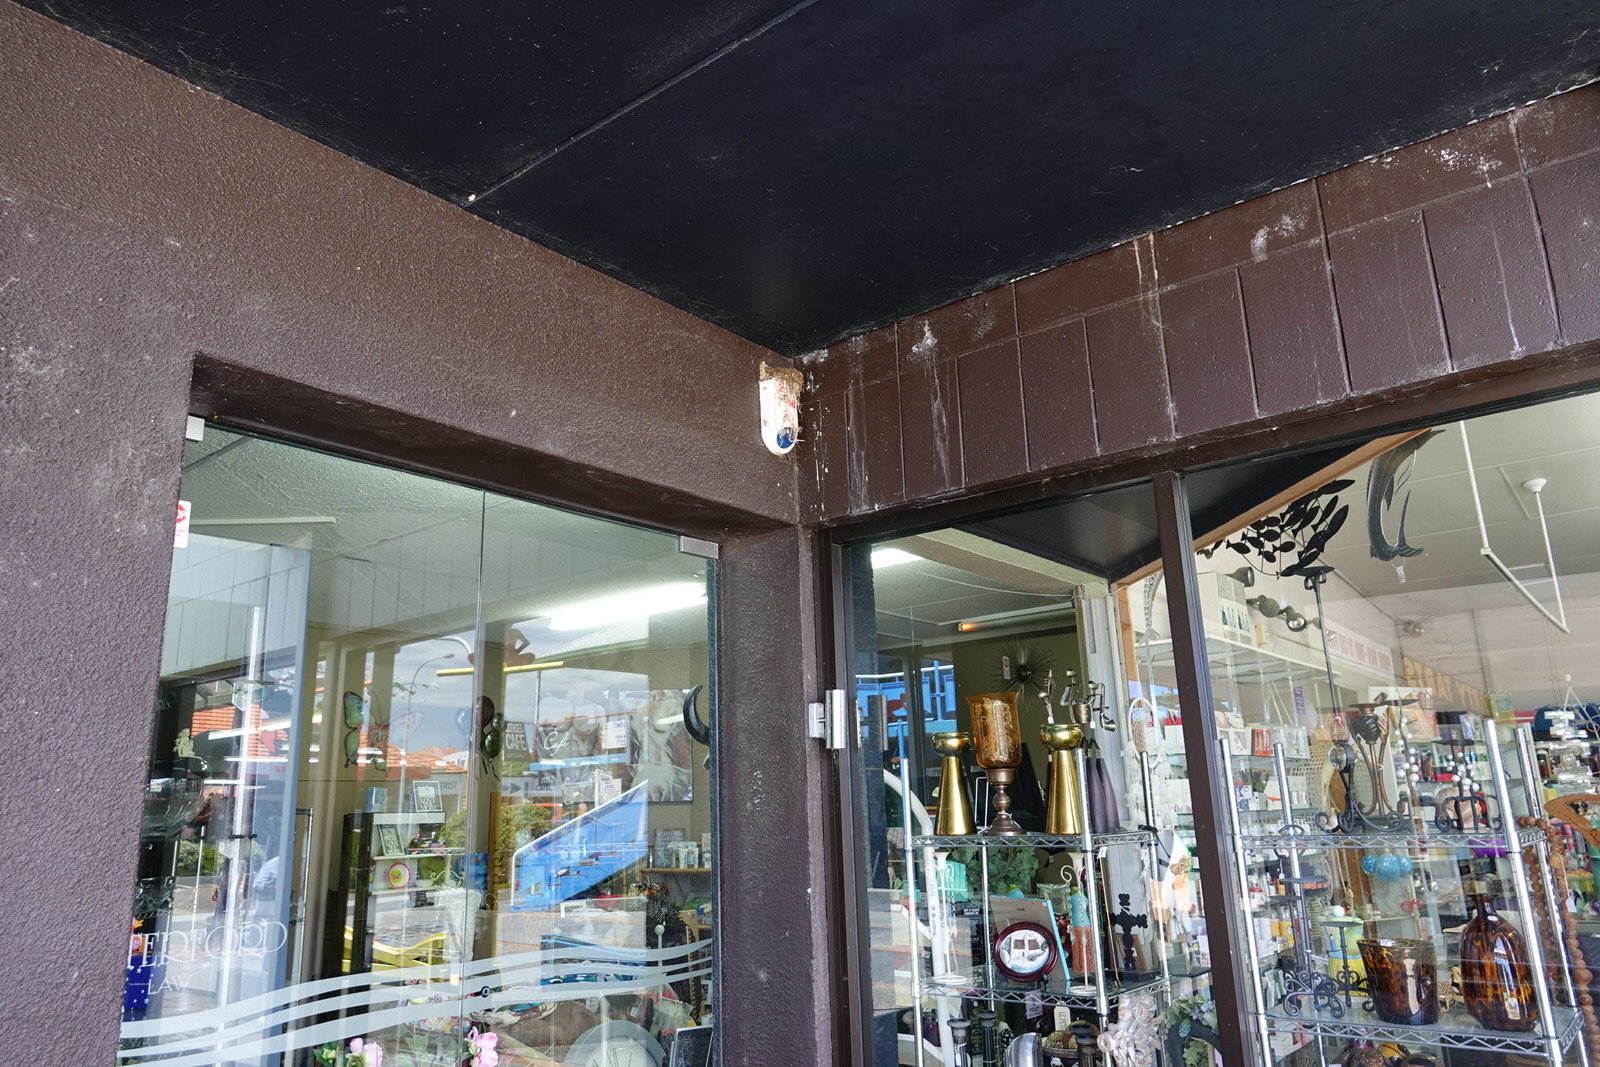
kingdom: Animalia
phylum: Chordata
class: Aves
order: Passeriformes
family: Hirundinidae
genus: Hirundo
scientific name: Hirundo neoxena
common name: Welcome swallow
